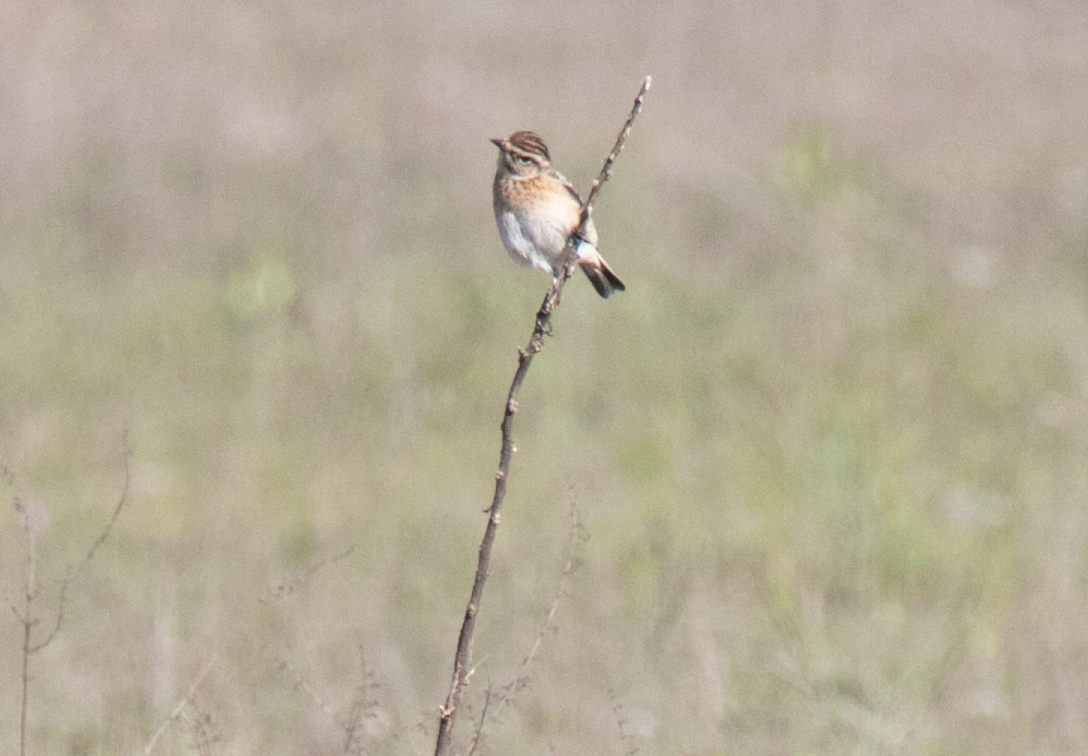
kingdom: Animalia
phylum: Chordata
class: Aves
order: Passeriformes
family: Muscicapidae
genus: Saxicola
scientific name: Saxicola rubetra
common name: Whinchat
